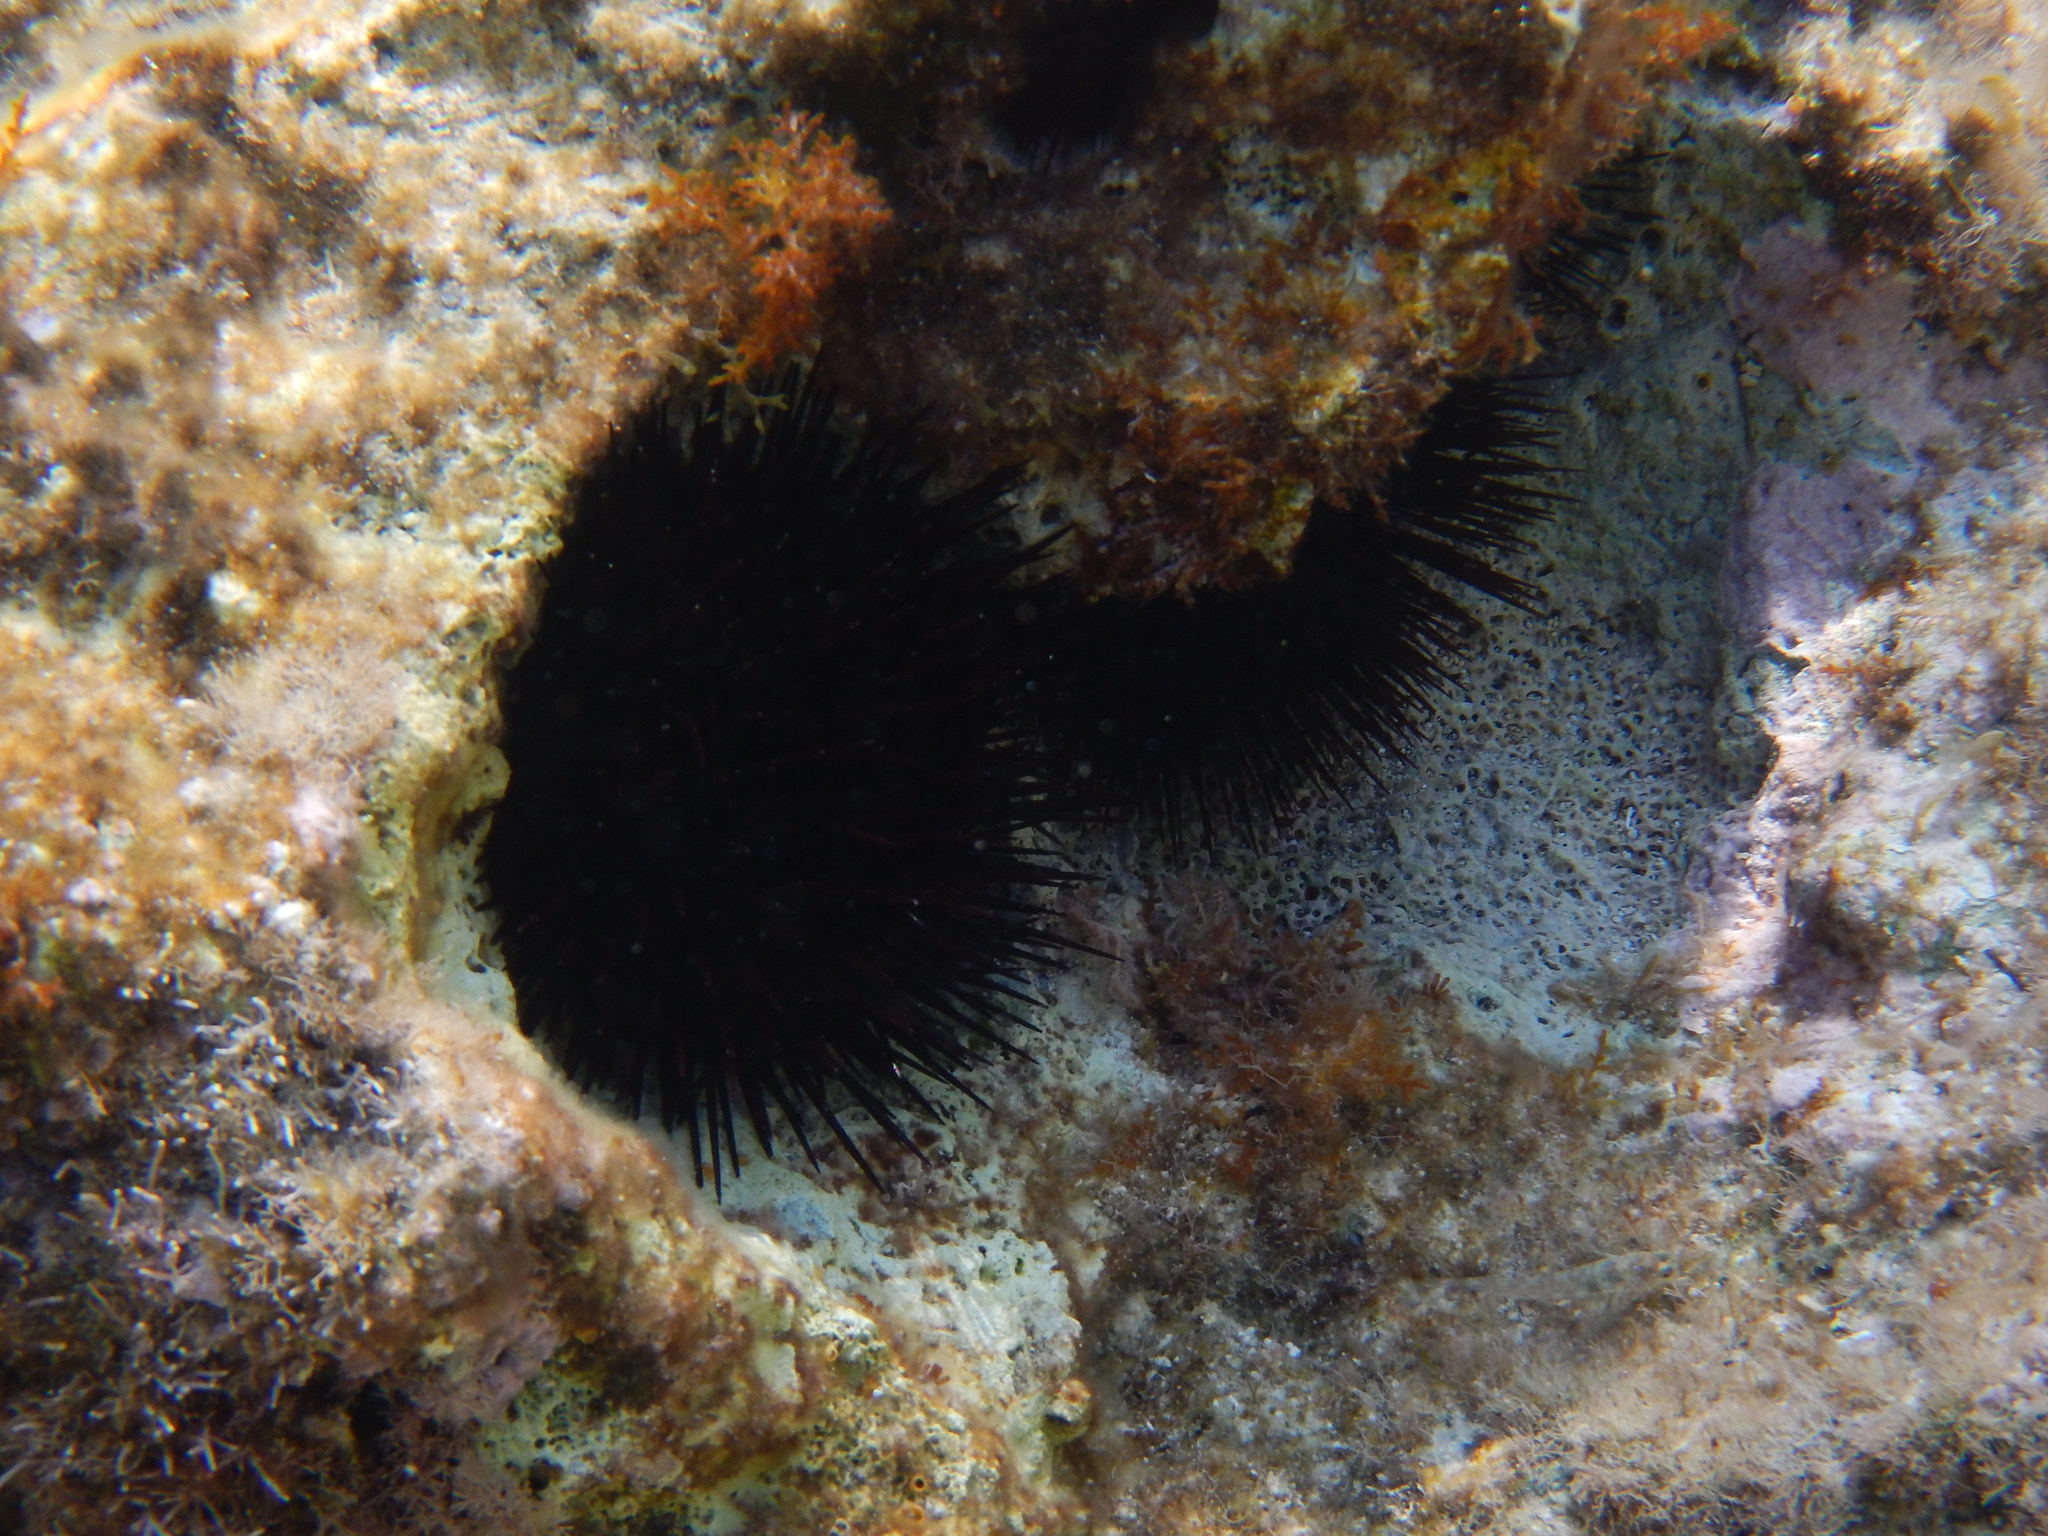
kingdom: Animalia
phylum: Echinodermata
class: Echinoidea
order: Arbacioida
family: Arbaciidae
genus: Arbacia
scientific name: Arbacia lixula
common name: Black sea urchin
